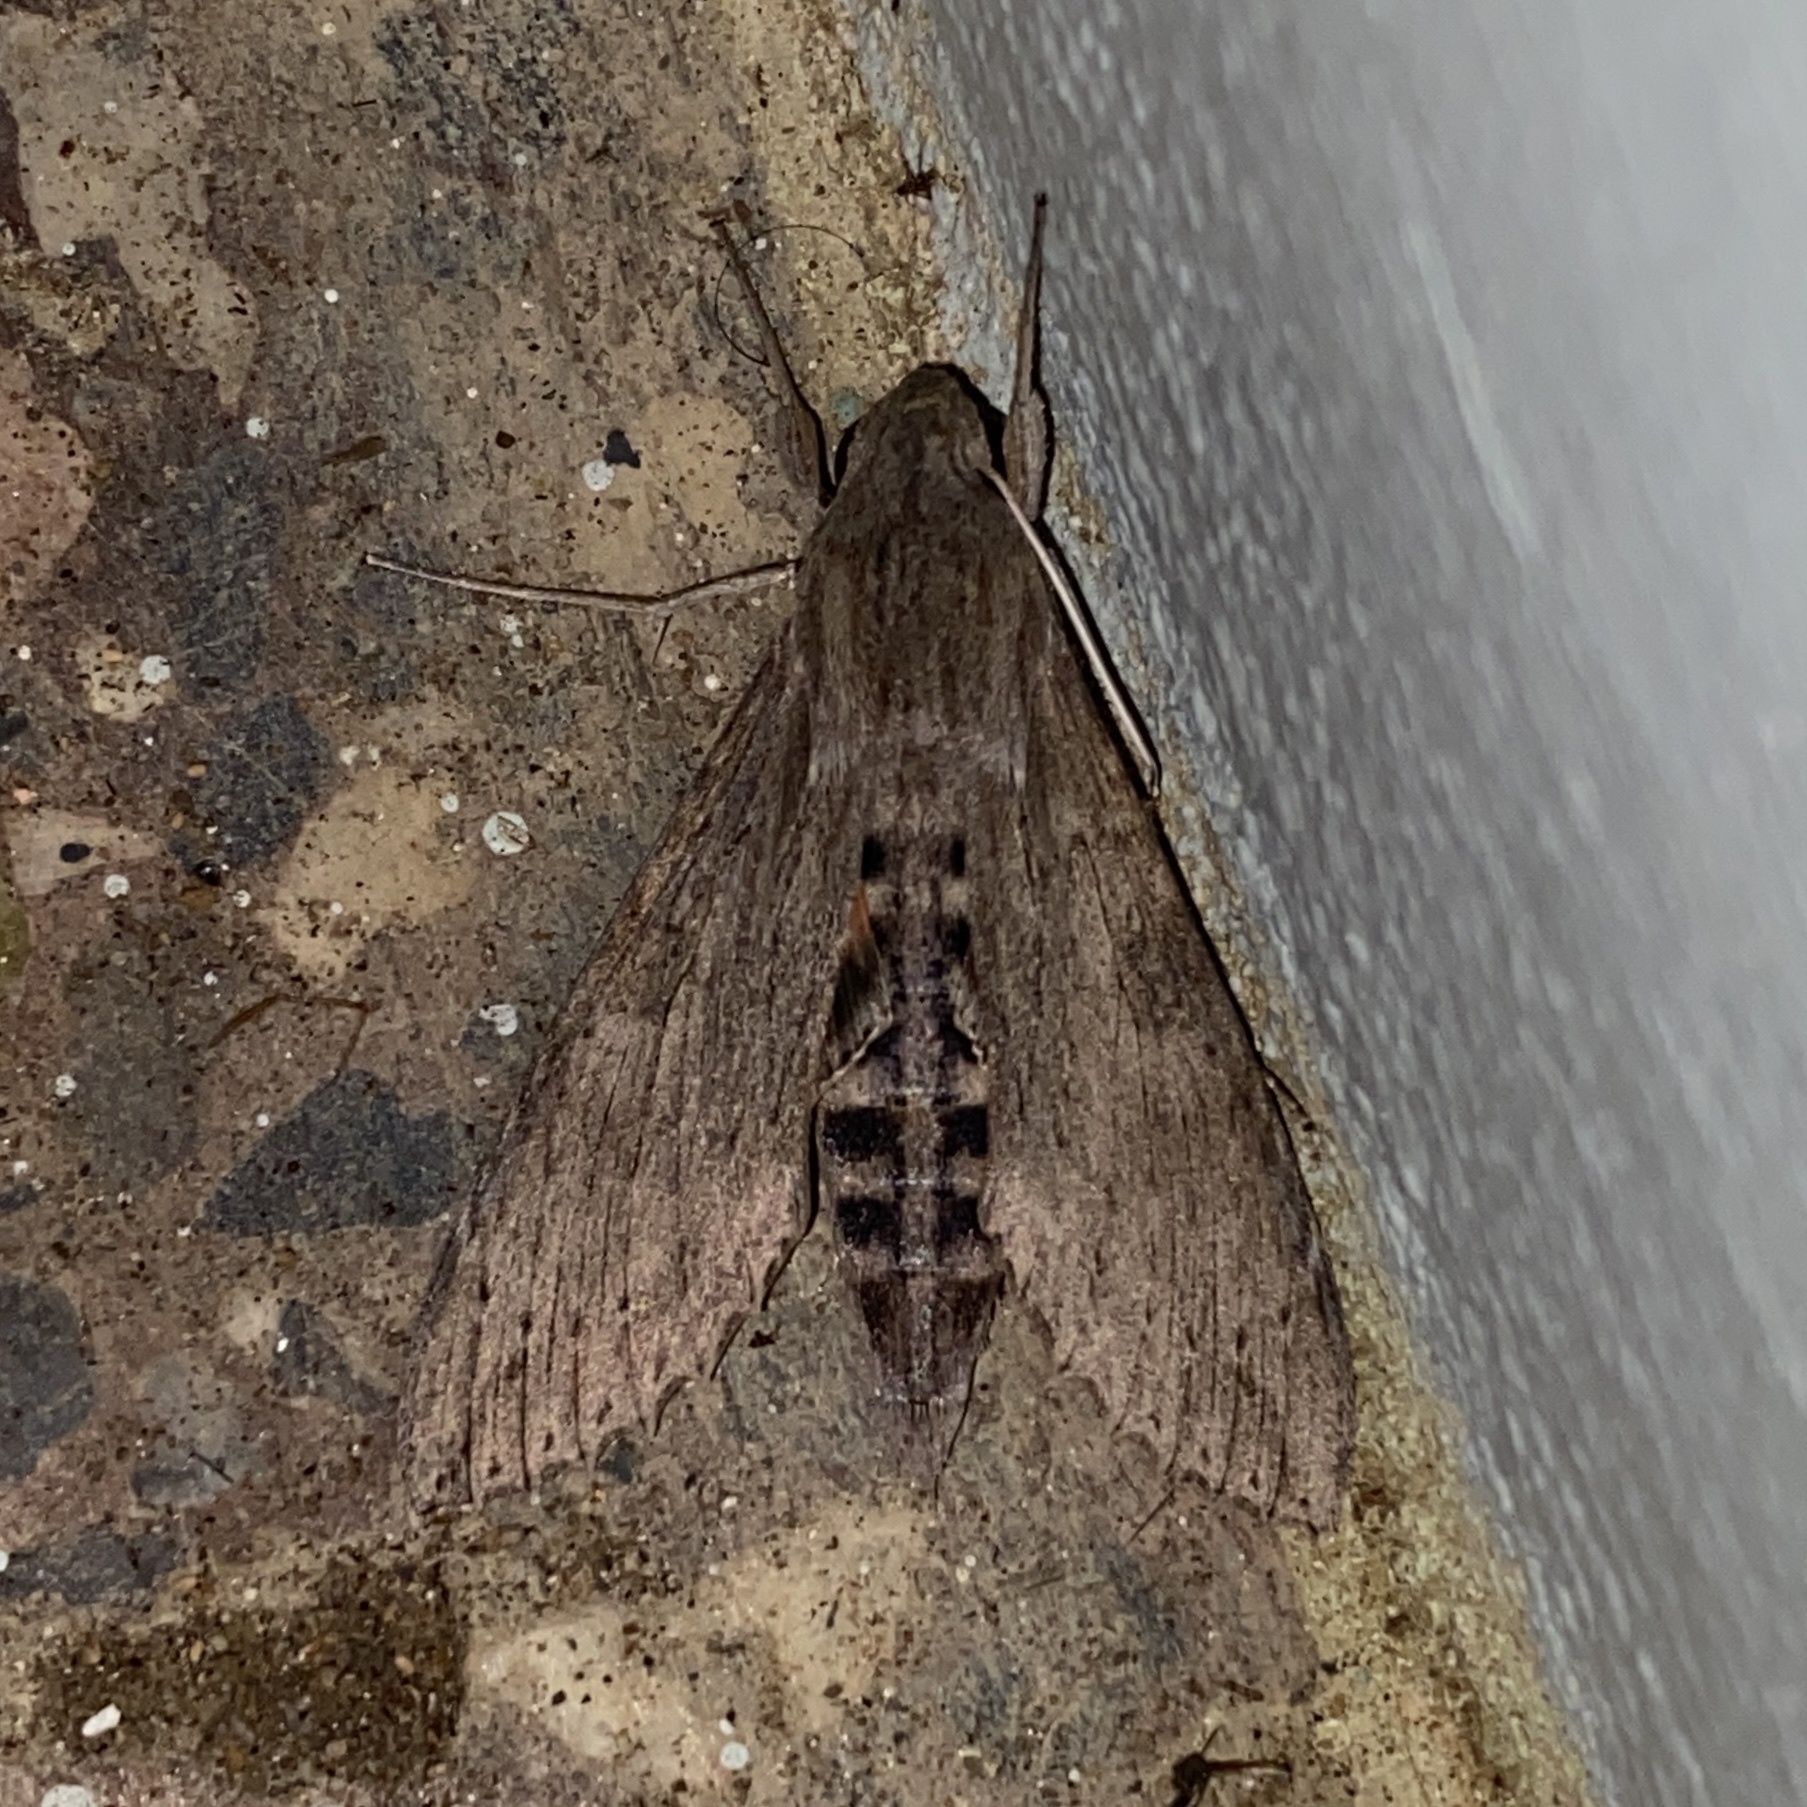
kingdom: Animalia
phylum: Arthropoda
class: Insecta
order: Lepidoptera
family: Sphingidae
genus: Erinnyis
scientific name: Erinnyis ello
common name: Ello sphinx
